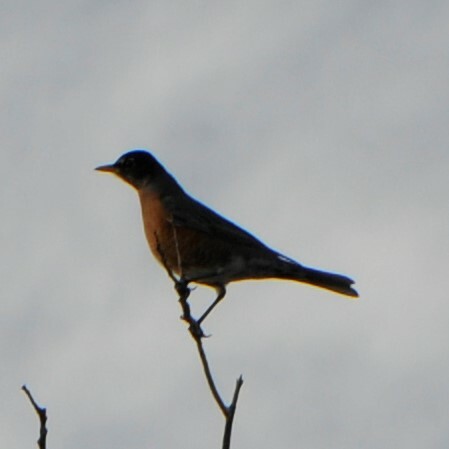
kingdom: Animalia
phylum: Chordata
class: Aves
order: Passeriformes
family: Turdidae
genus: Turdus
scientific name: Turdus migratorius
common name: American robin
